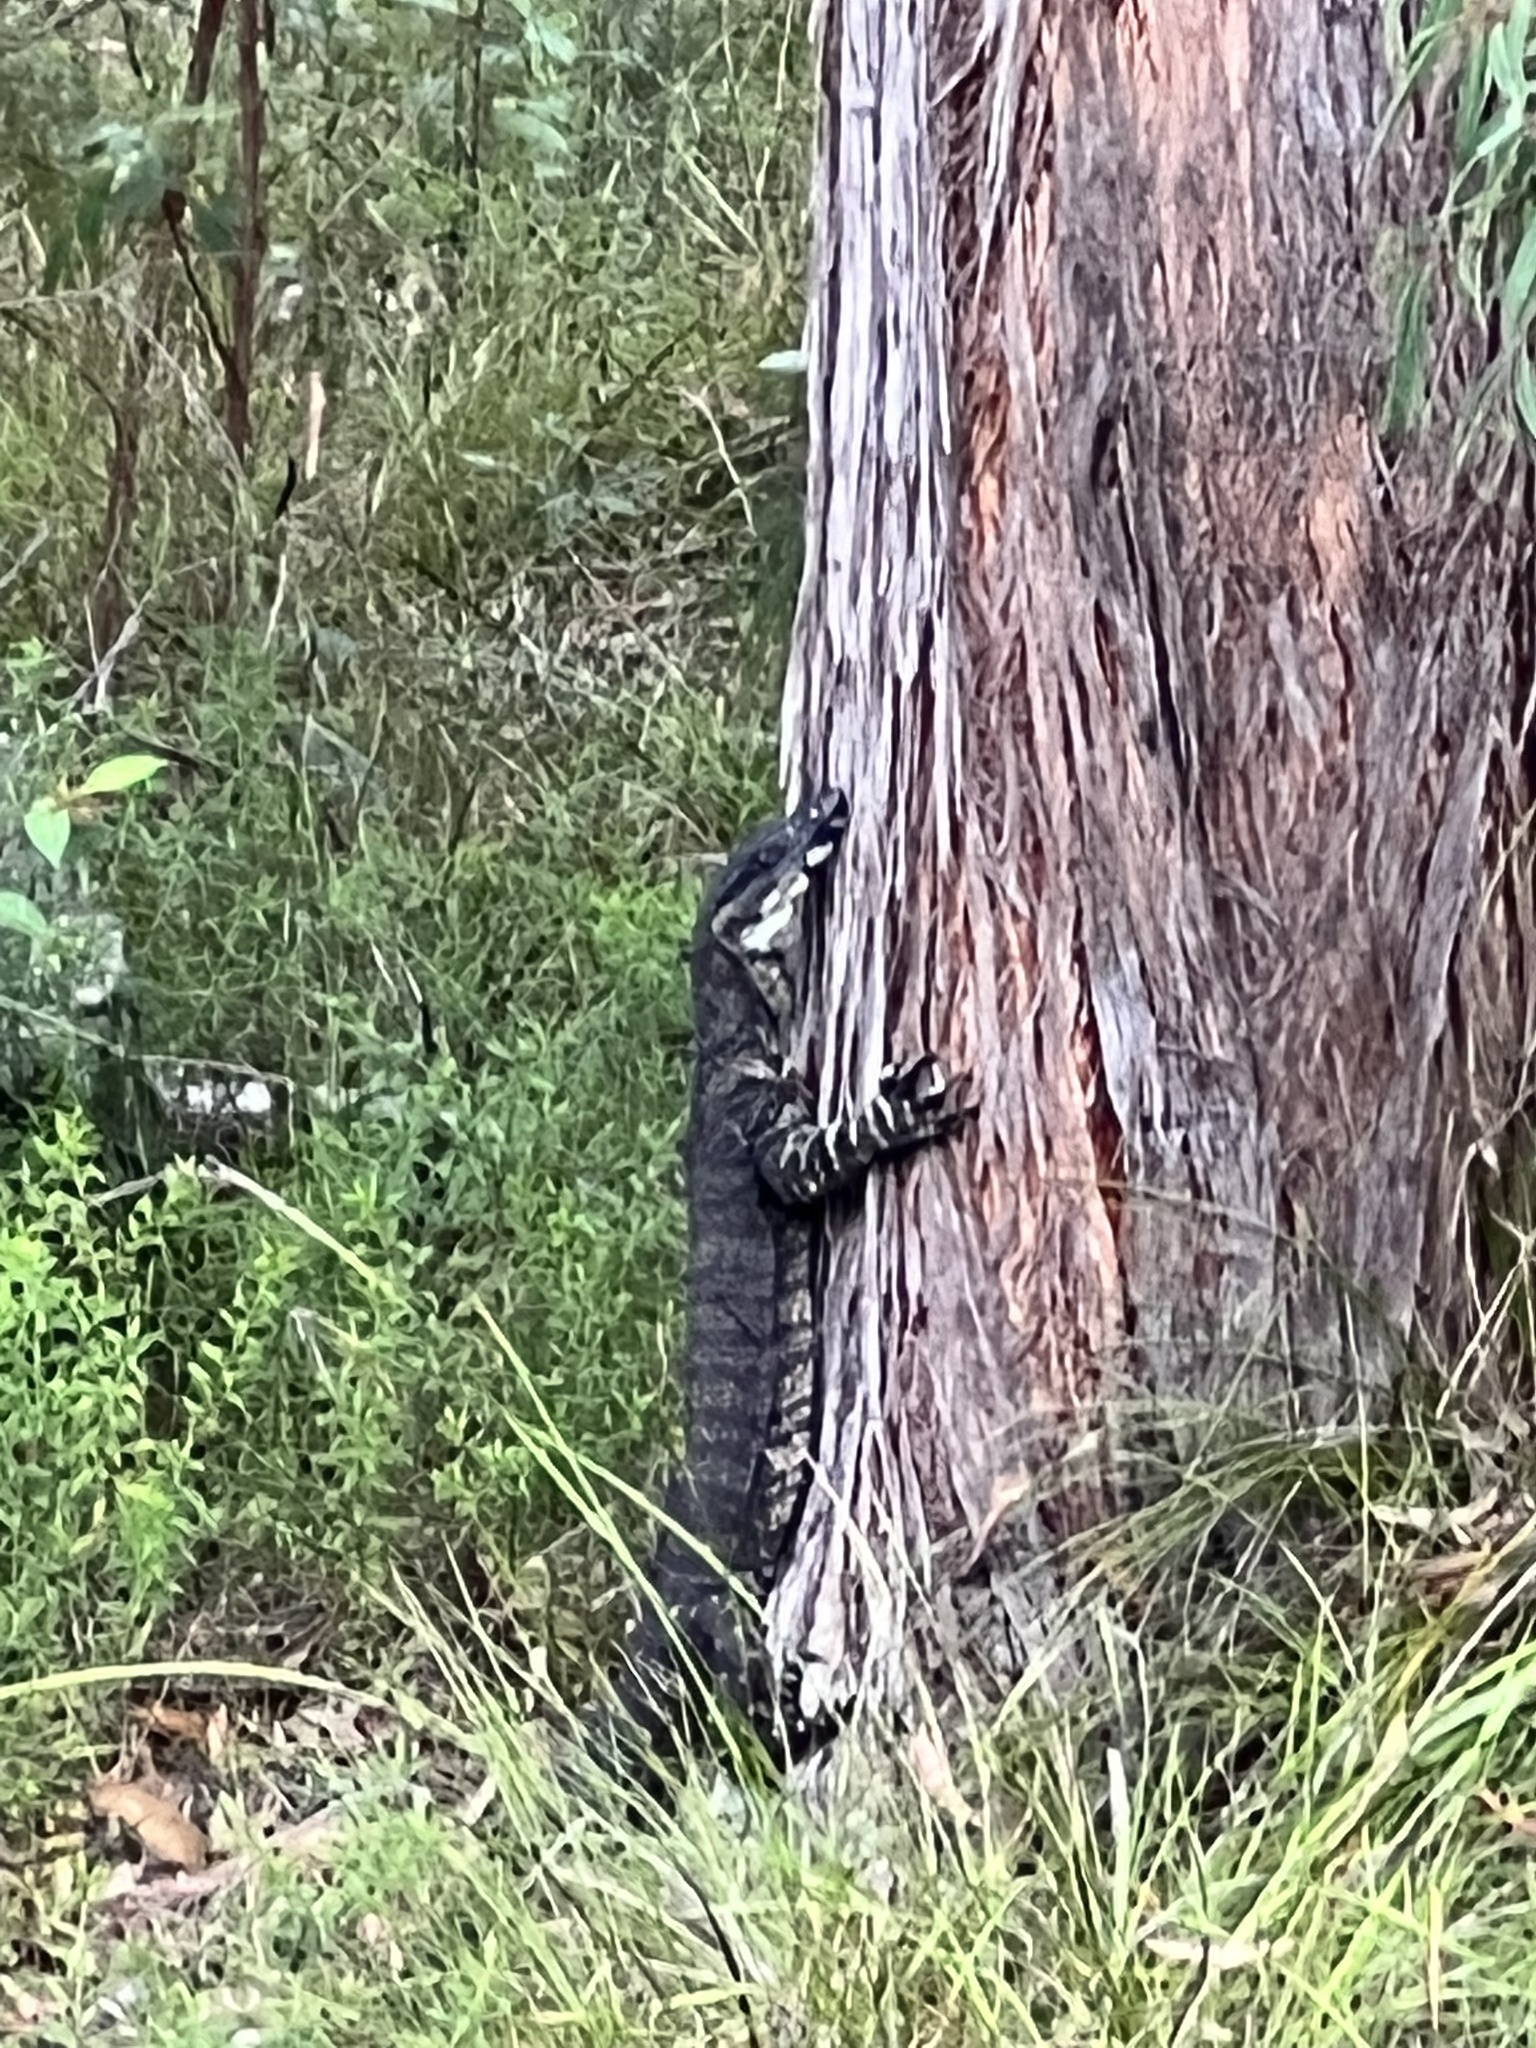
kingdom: Animalia
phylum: Chordata
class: Squamata
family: Varanidae
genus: Varanus
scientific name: Varanus varius
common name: Lace monitor
